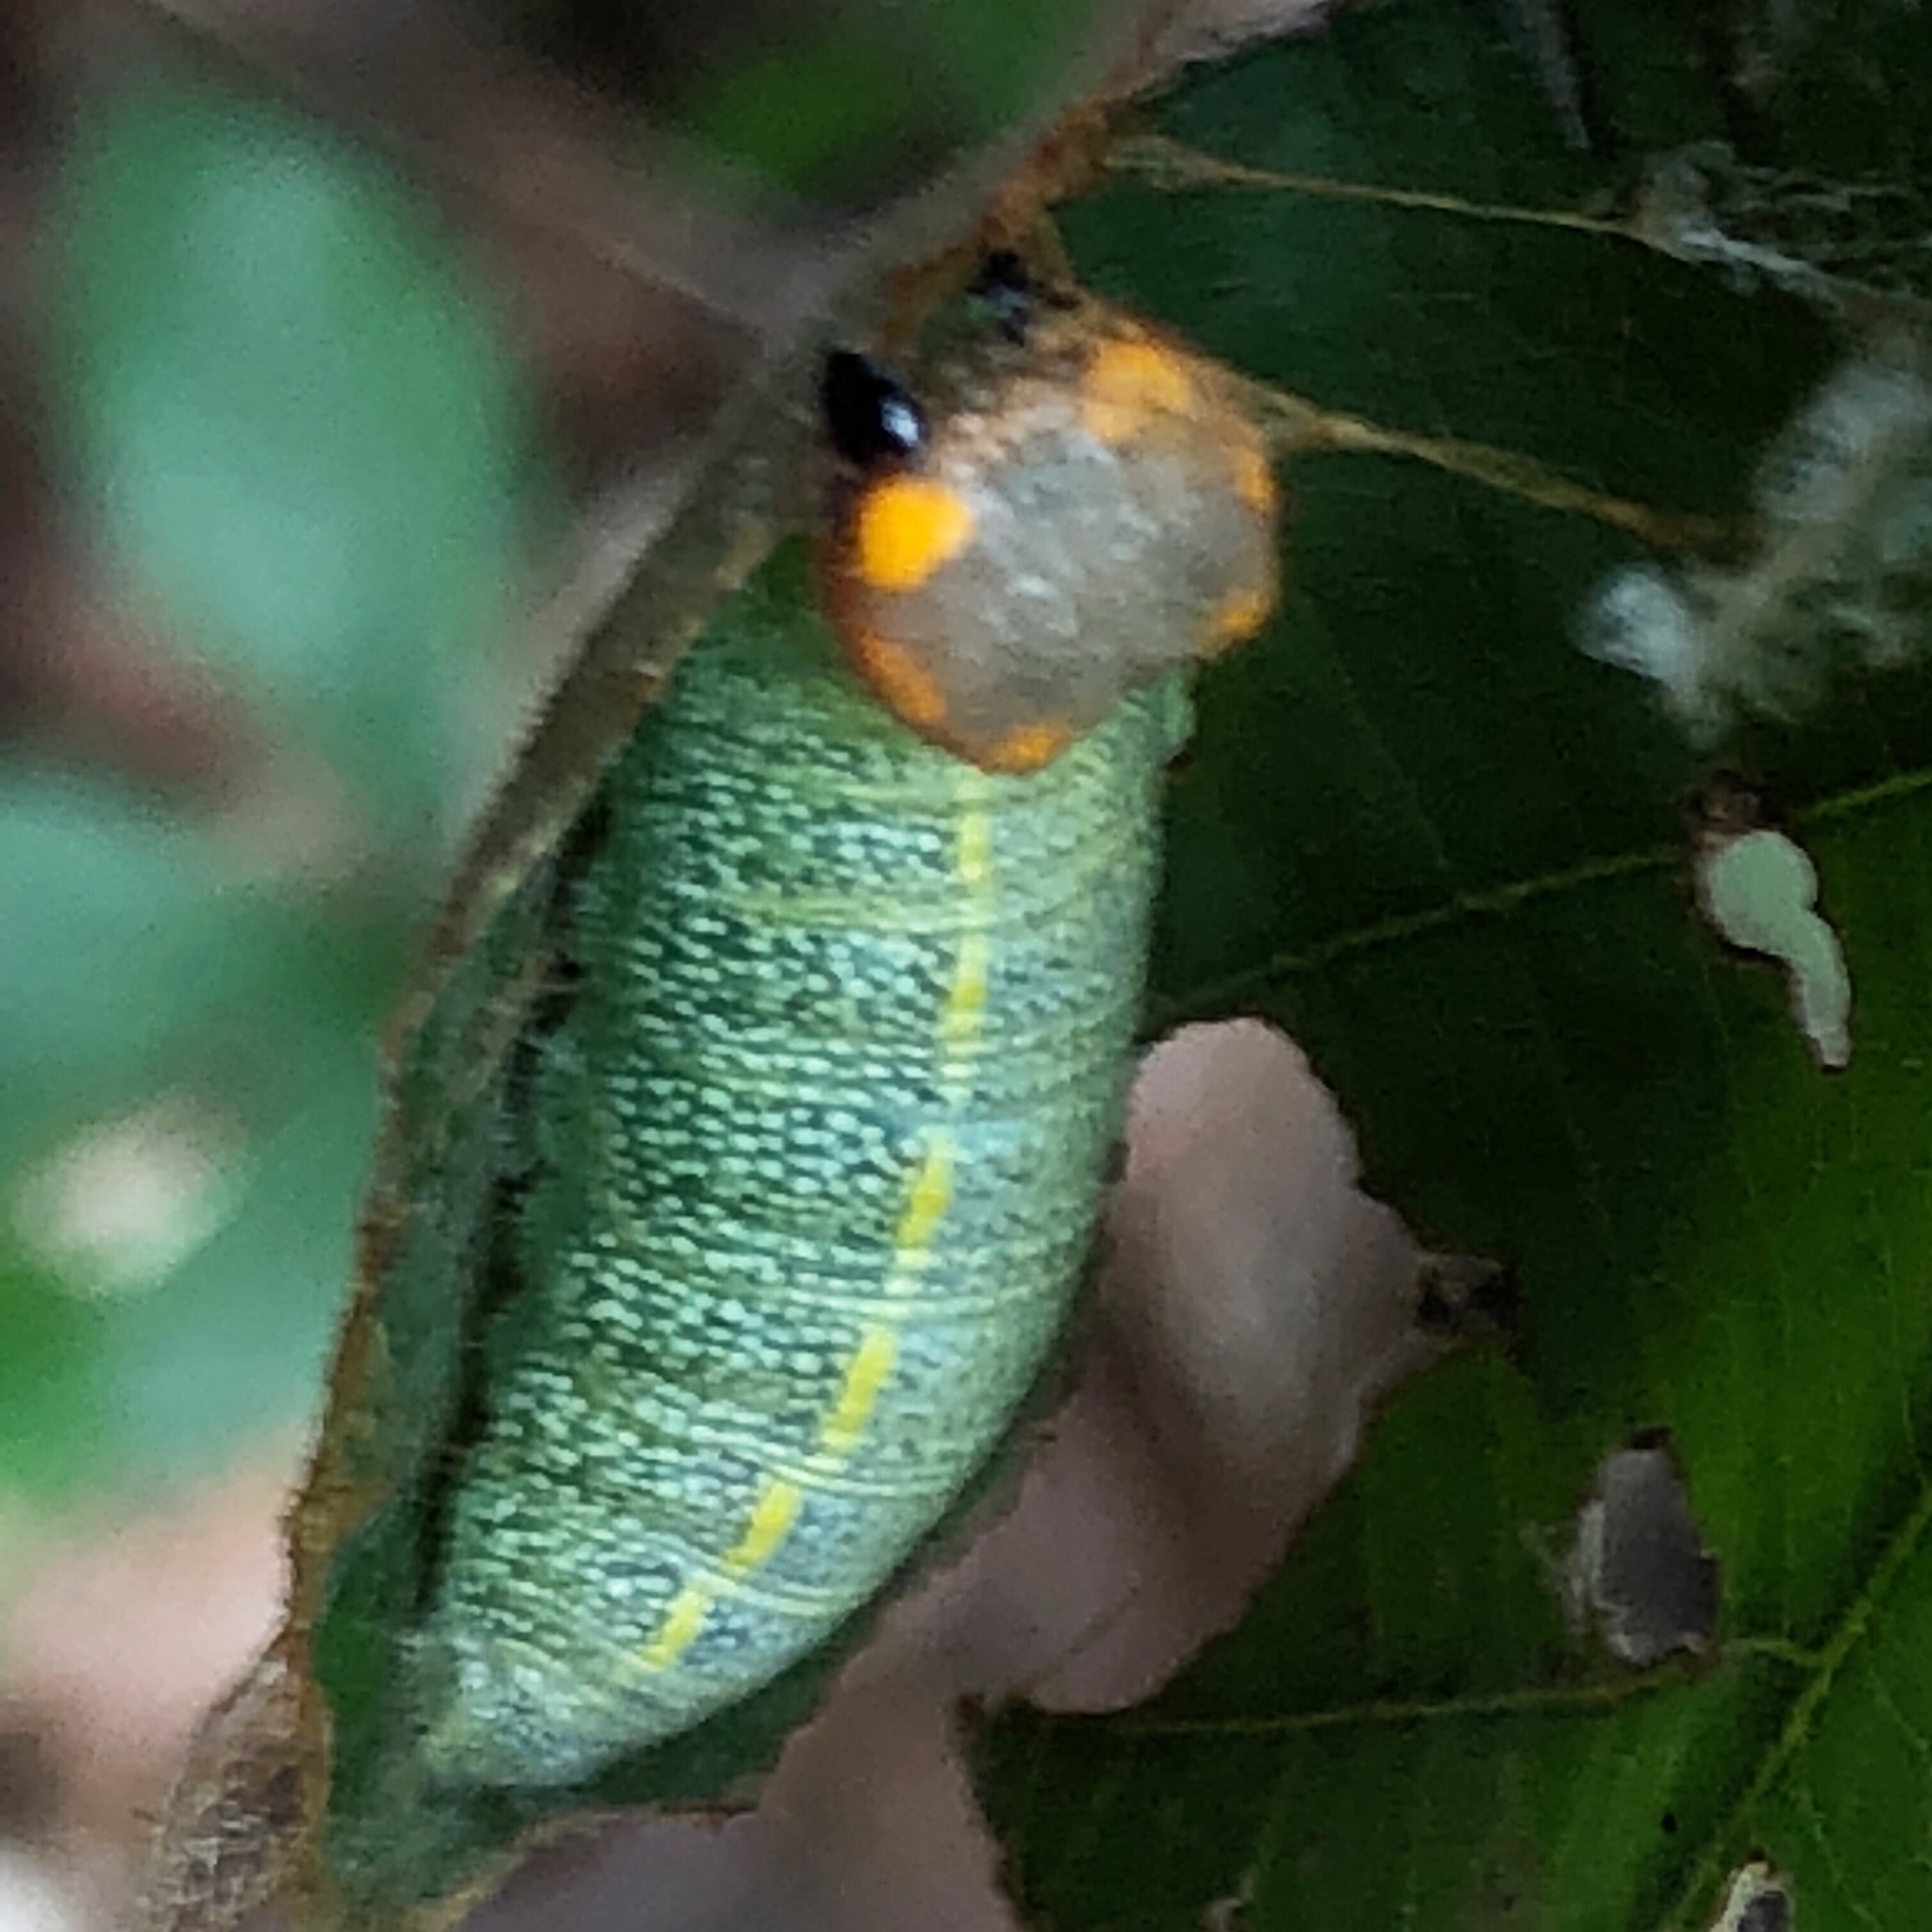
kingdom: Animalia
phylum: Arthropoda
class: Insecta
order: Lepidoptera
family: Hesperiidae
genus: Erynnis
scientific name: Erynnis juvenalis
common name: Juvenal's duskywing
